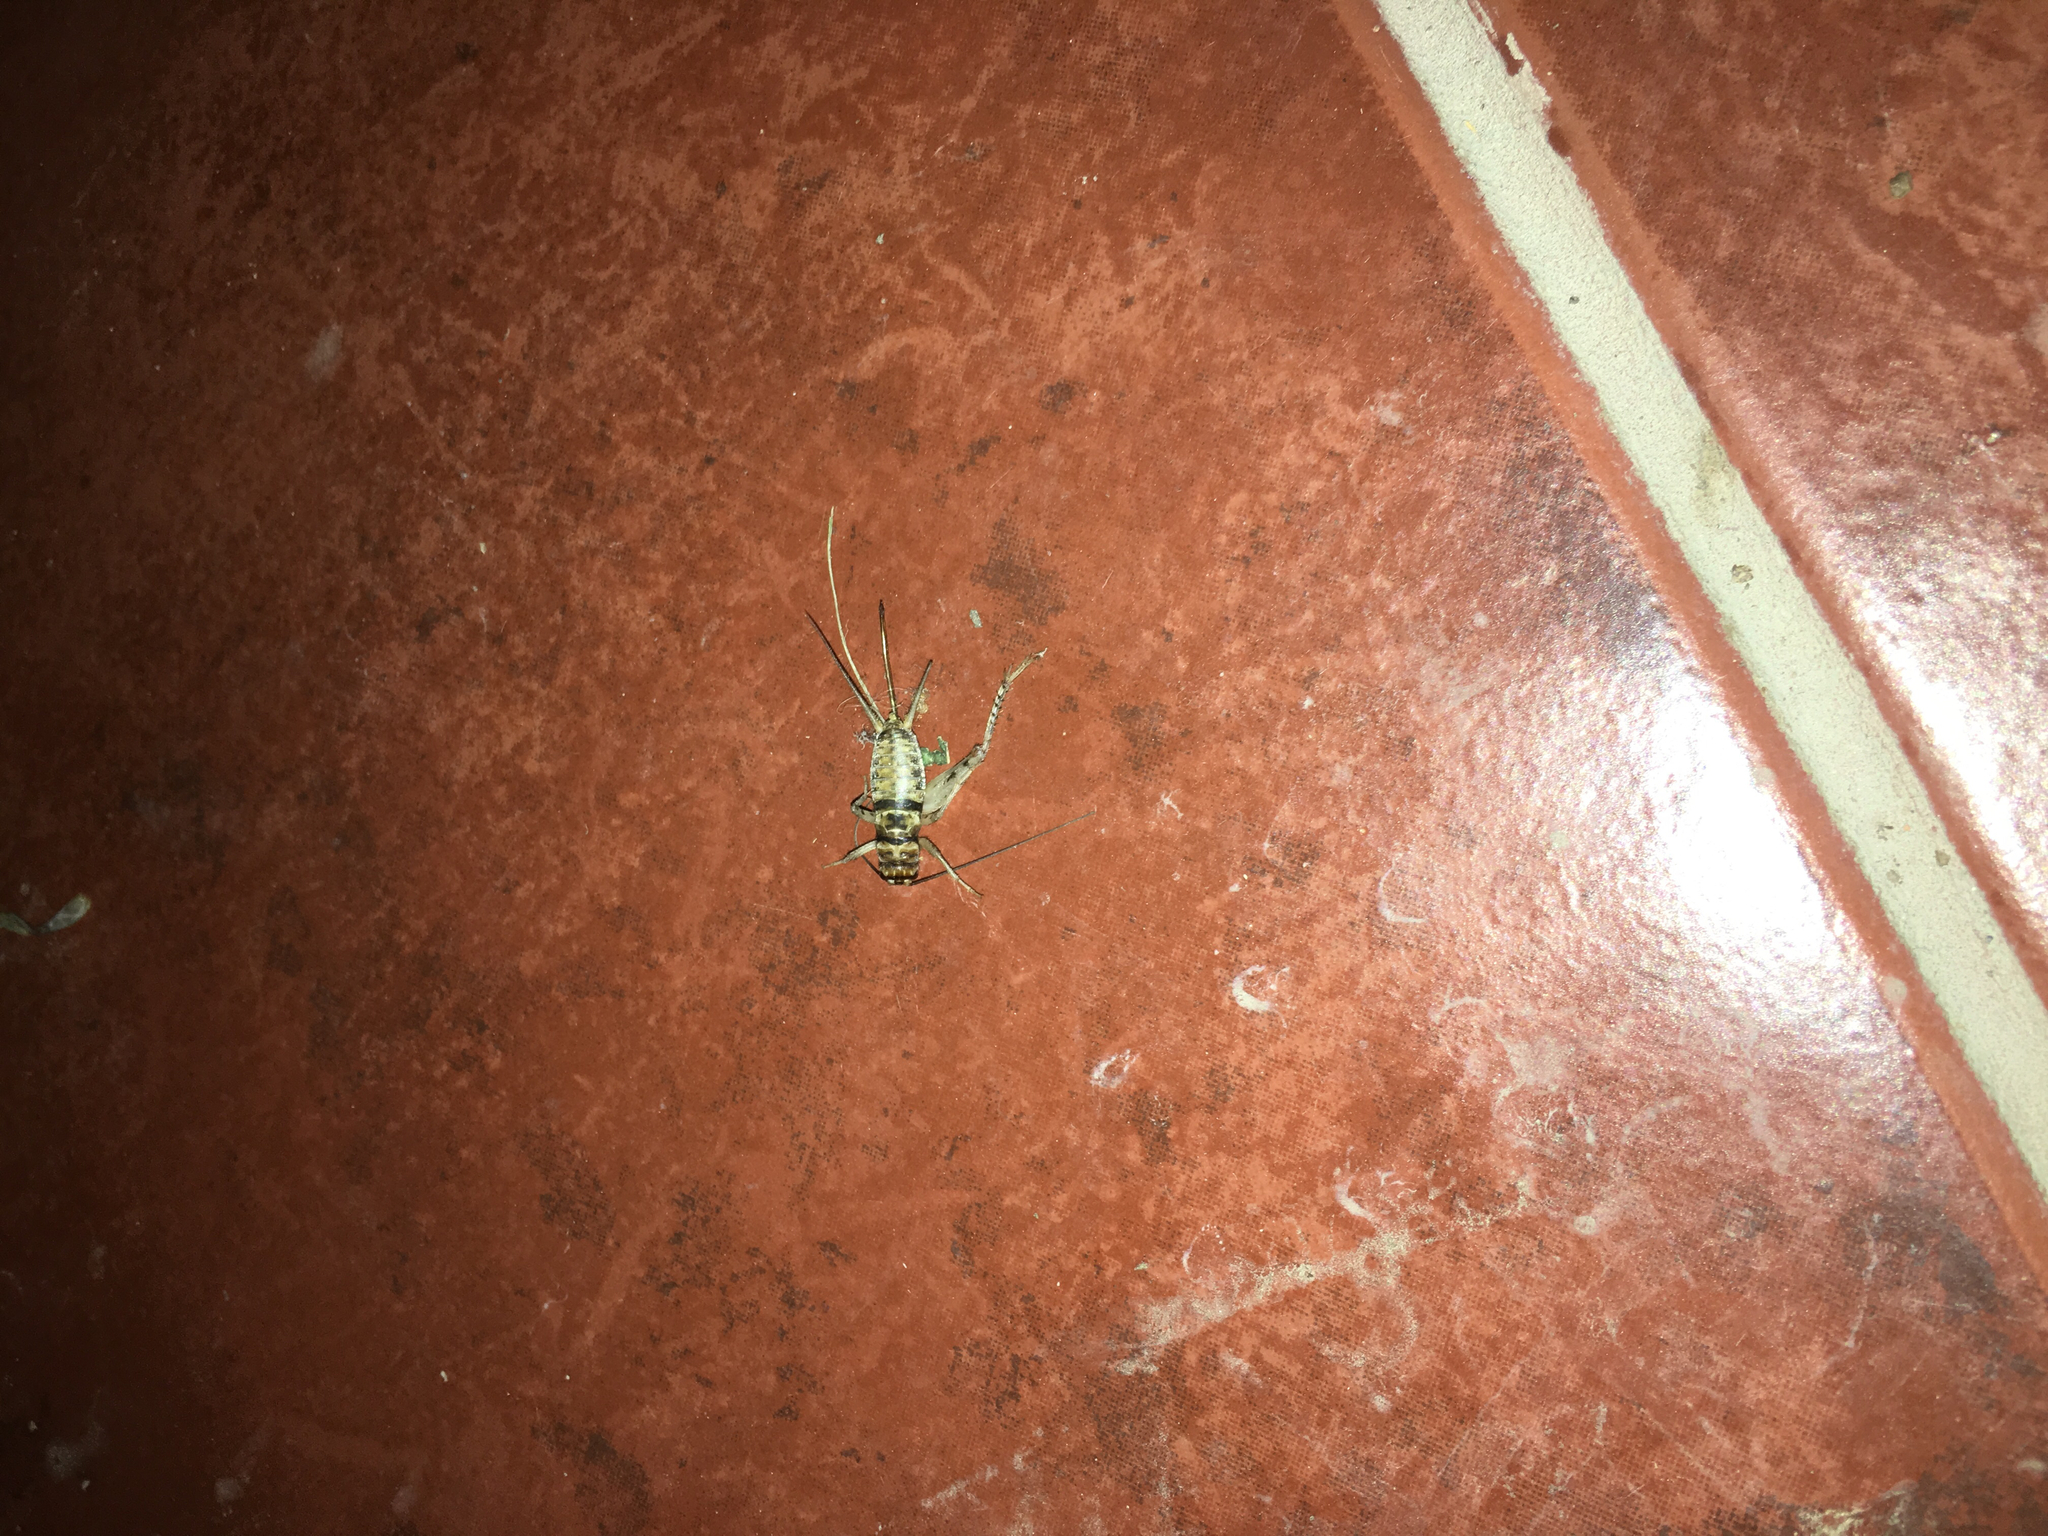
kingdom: Animalia
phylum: Arthropoda
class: Insecta
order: Orthoptera
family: Gryllidae
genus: Gryllodes
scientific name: Gryllodes sigillatus
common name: Tropical house cricket
